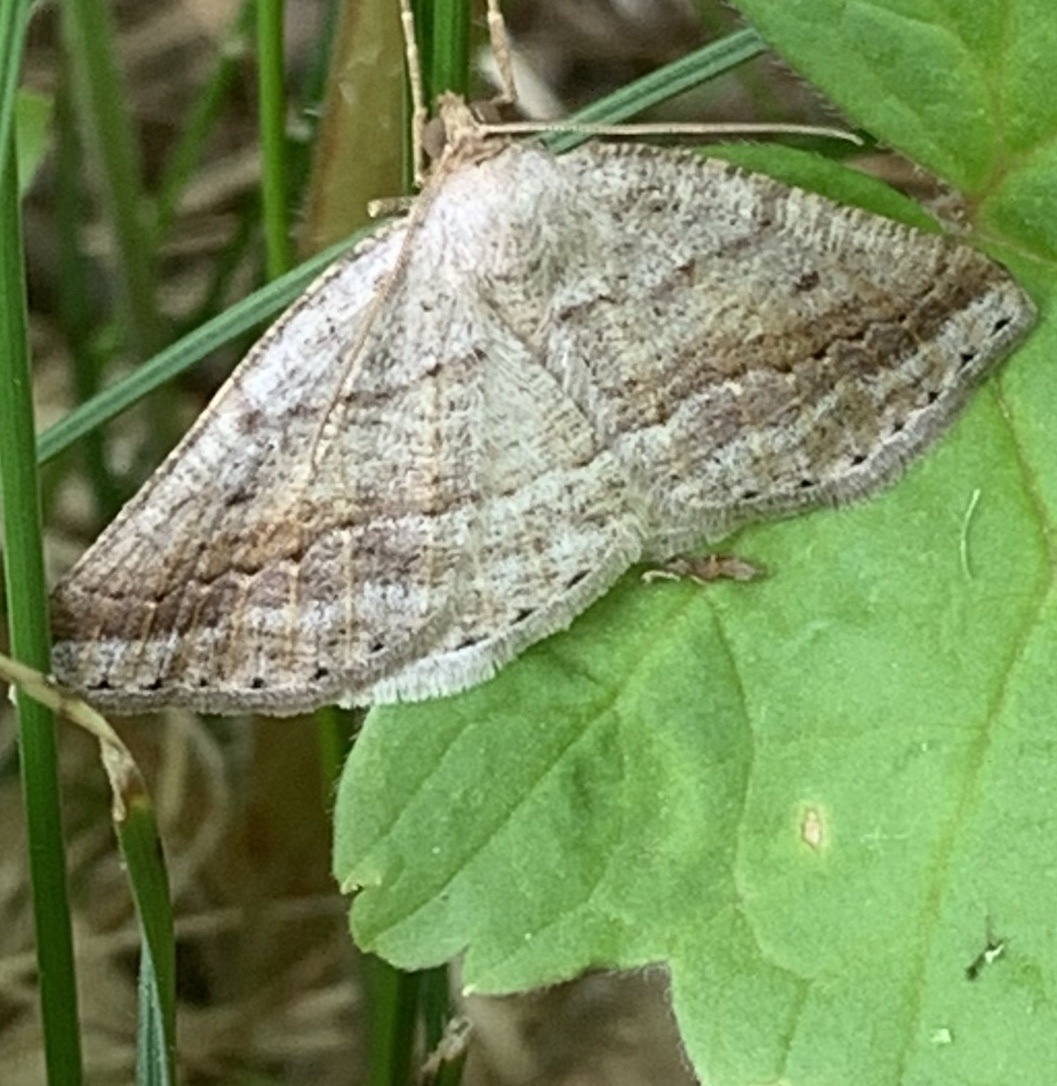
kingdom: Animalia
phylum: Arthropoda
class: Insecta
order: Lepidoptera
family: Geometridae
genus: Tacparia
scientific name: Tacparia detersata
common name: Pale alder moth
